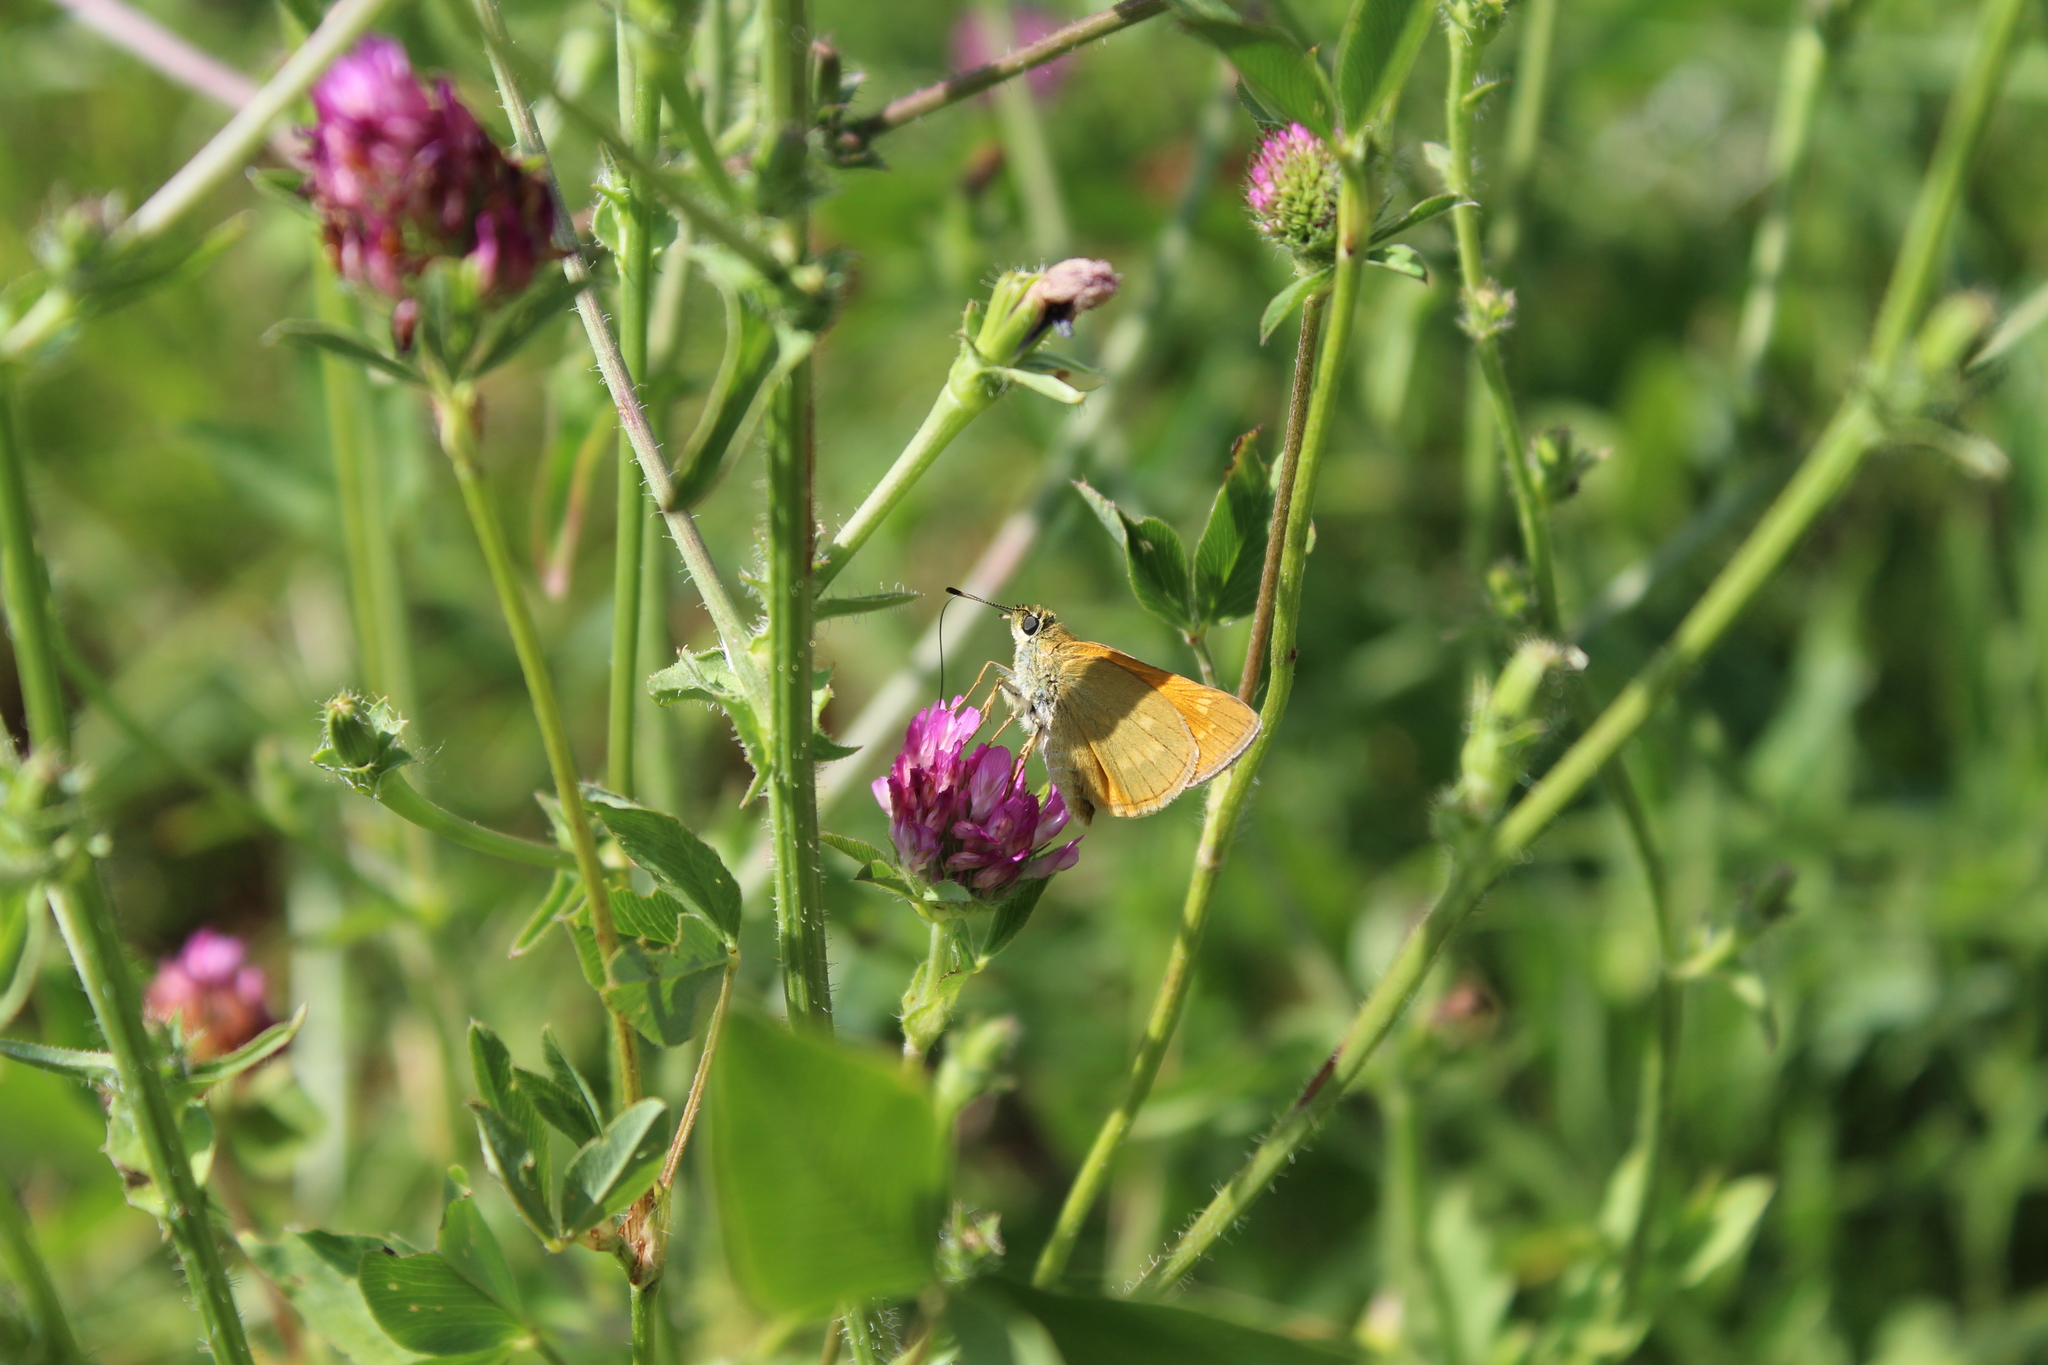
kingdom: Animalia
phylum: Arthropoda
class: Insecta
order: Lepidoptera
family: Hesperiidae
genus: Ochlodes
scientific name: Ochlodes venata
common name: Large skipper
